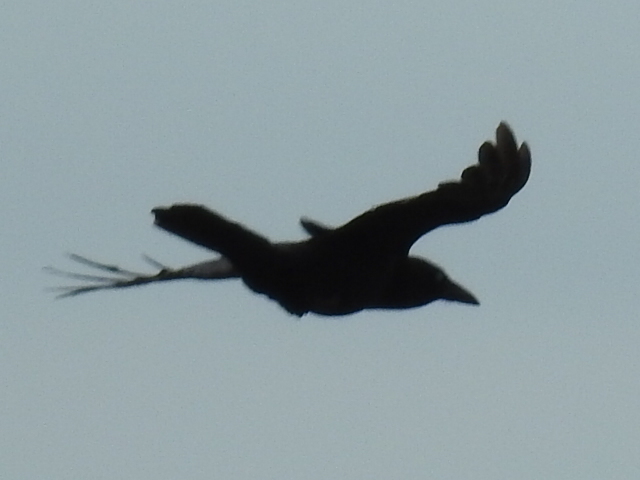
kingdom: Animalia
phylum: Chordata
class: Aves
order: Passeriformes
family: Corvidae
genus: Corvus
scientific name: Corvus brachyrhynchos
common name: American crow
